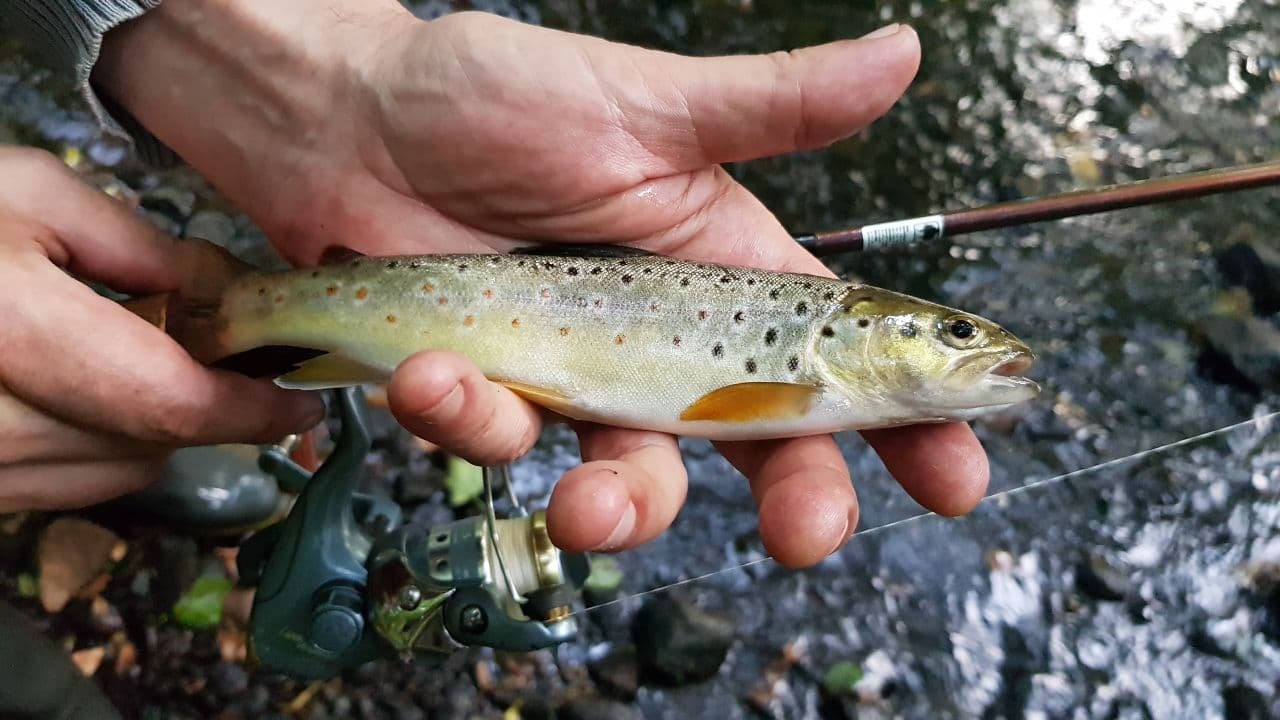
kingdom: Animalia
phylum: Chordata
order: Salmoniformes
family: Salmonidae
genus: Salmo
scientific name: Salmo trutta
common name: Brown trout
